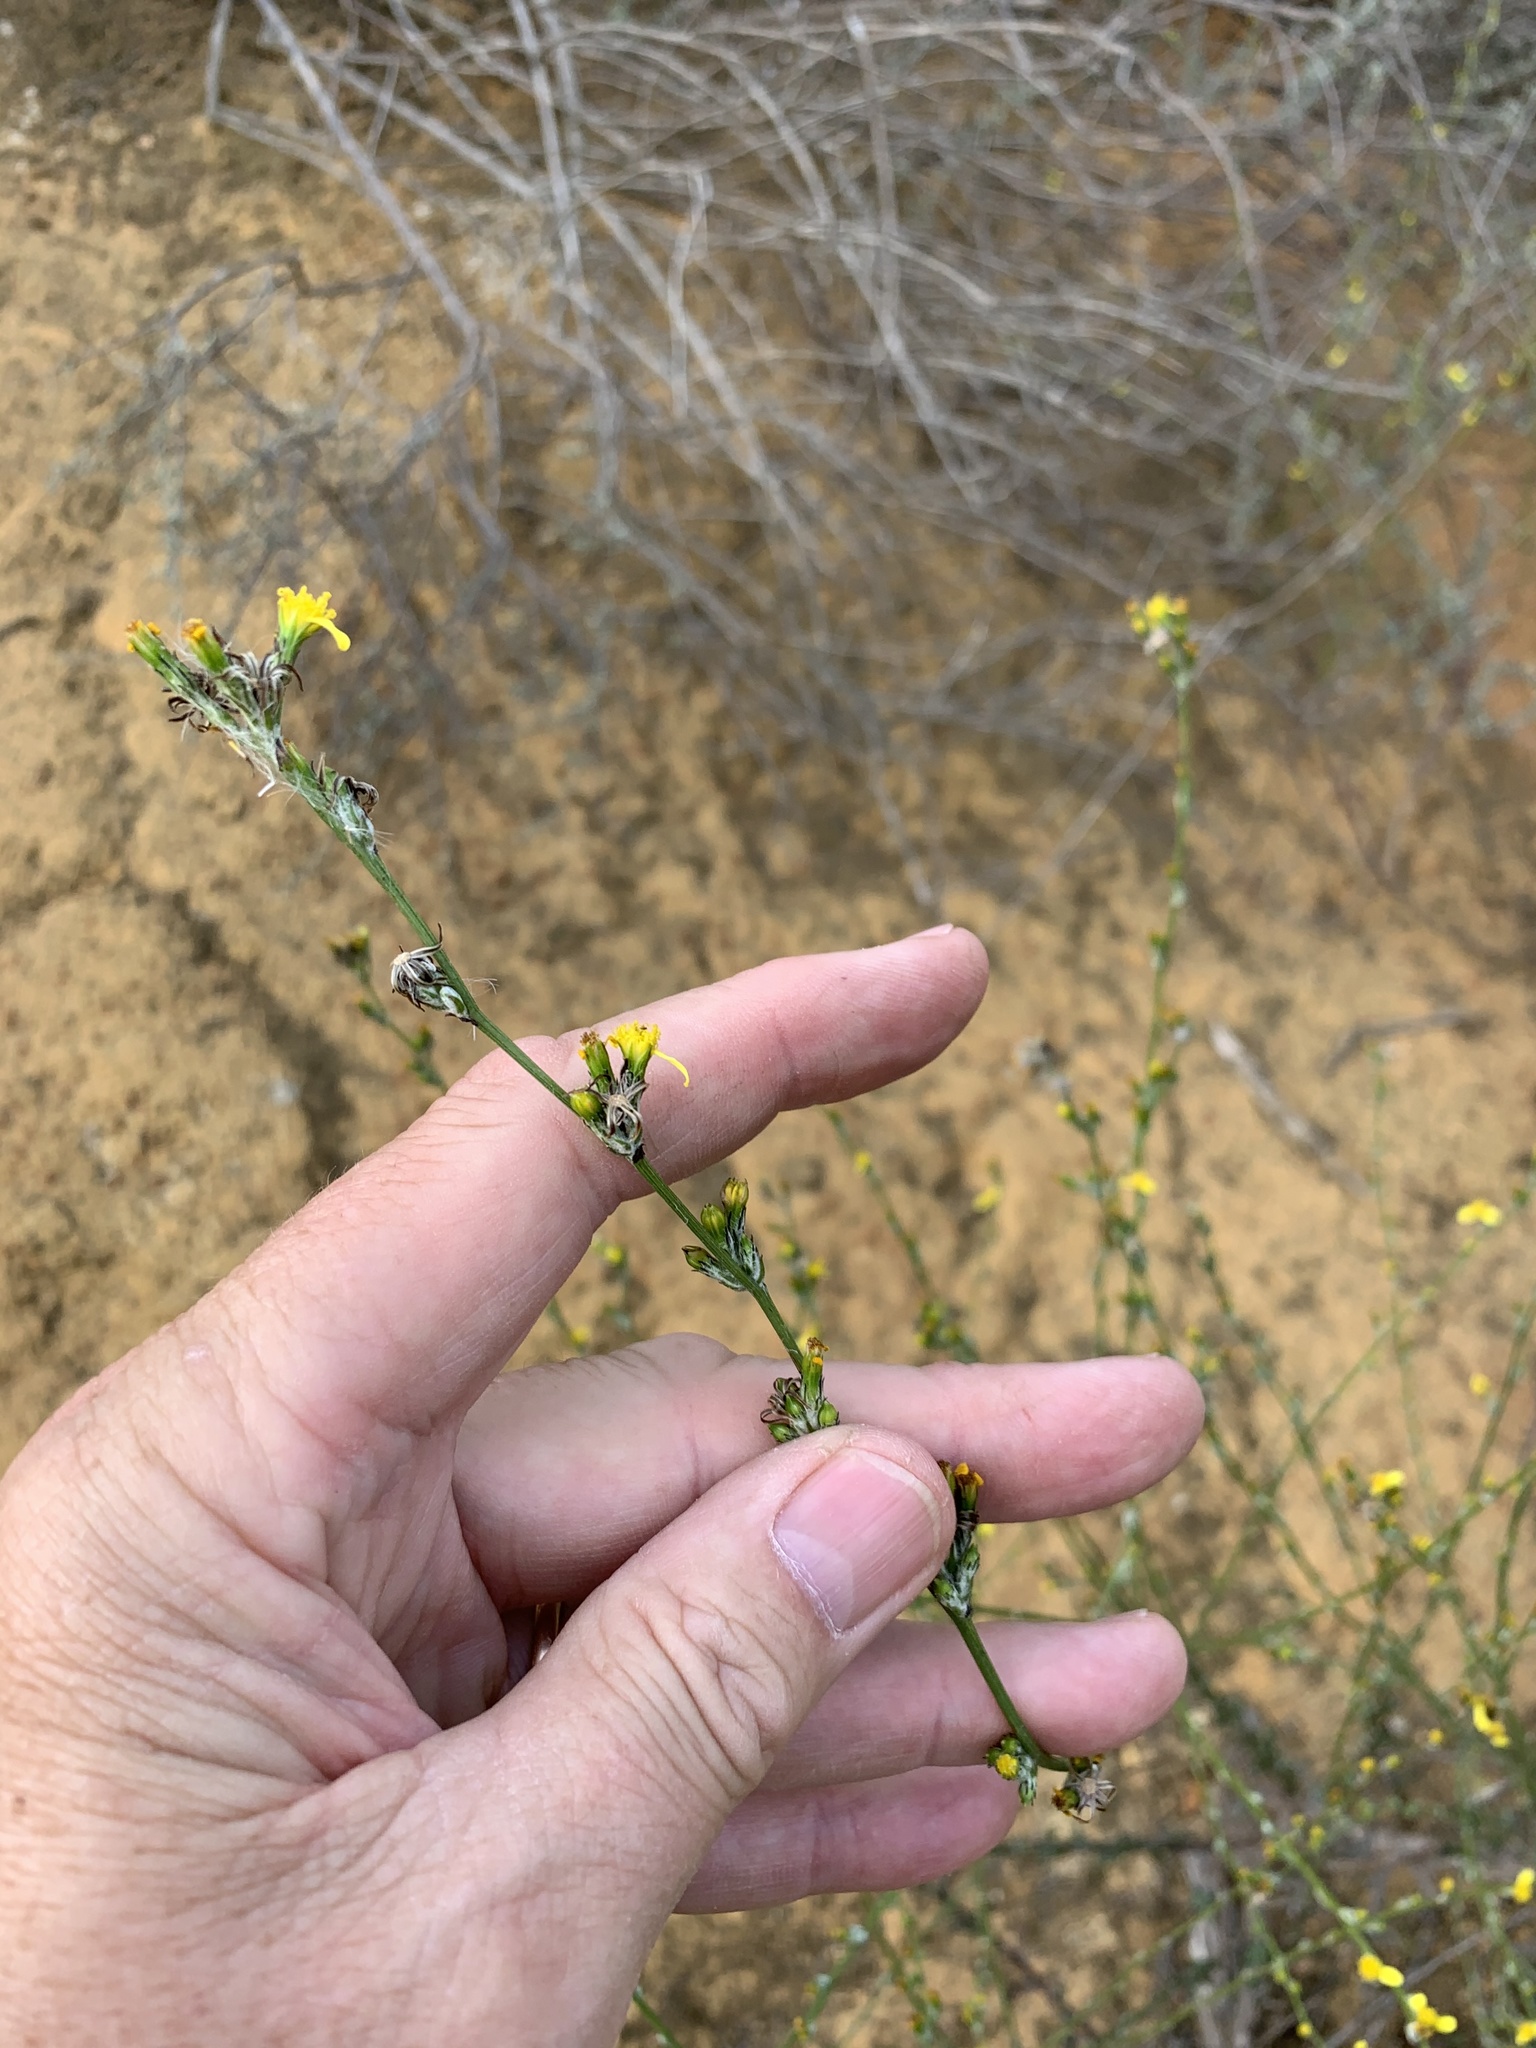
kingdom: Plantae
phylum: Tracheophyta
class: Magnoliopsida
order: Asterales
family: Asteraceae
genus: Senecio
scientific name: Senecio pubigerus
